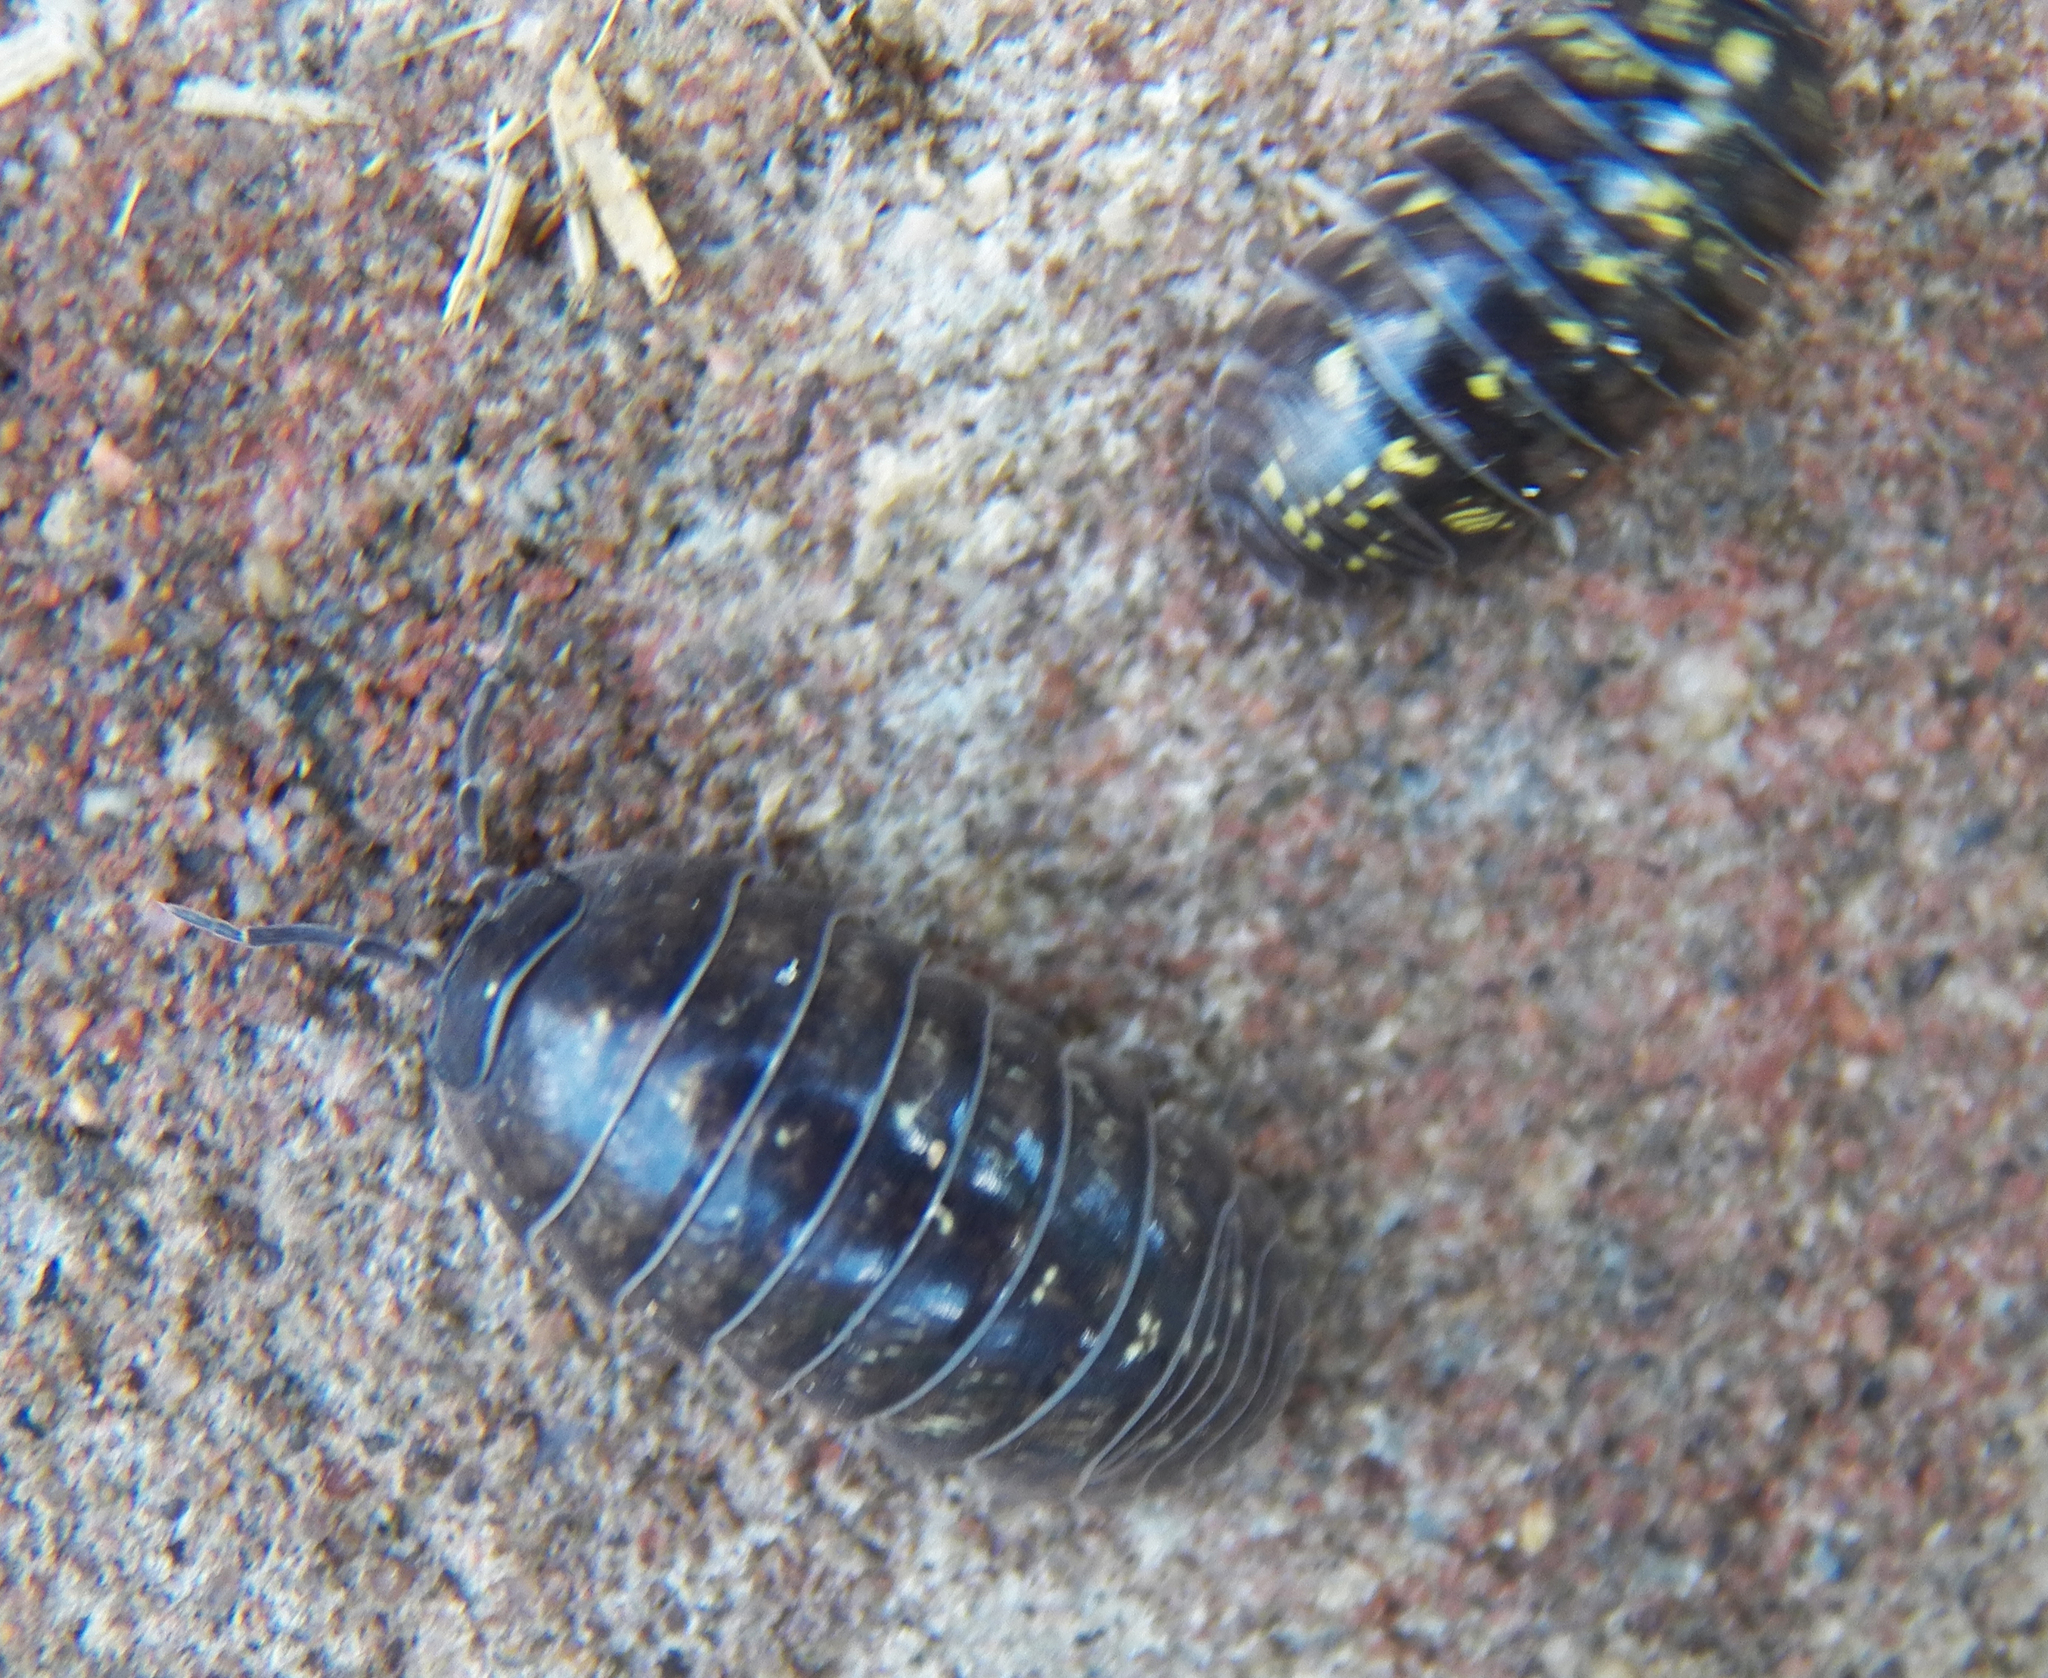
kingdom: Animalia
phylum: Arthropoda
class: Malacostraca
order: Isopoda
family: Armadillidiidae
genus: Armadillidium
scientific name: Armadillidium vulgare
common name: Common pill woodlouse
